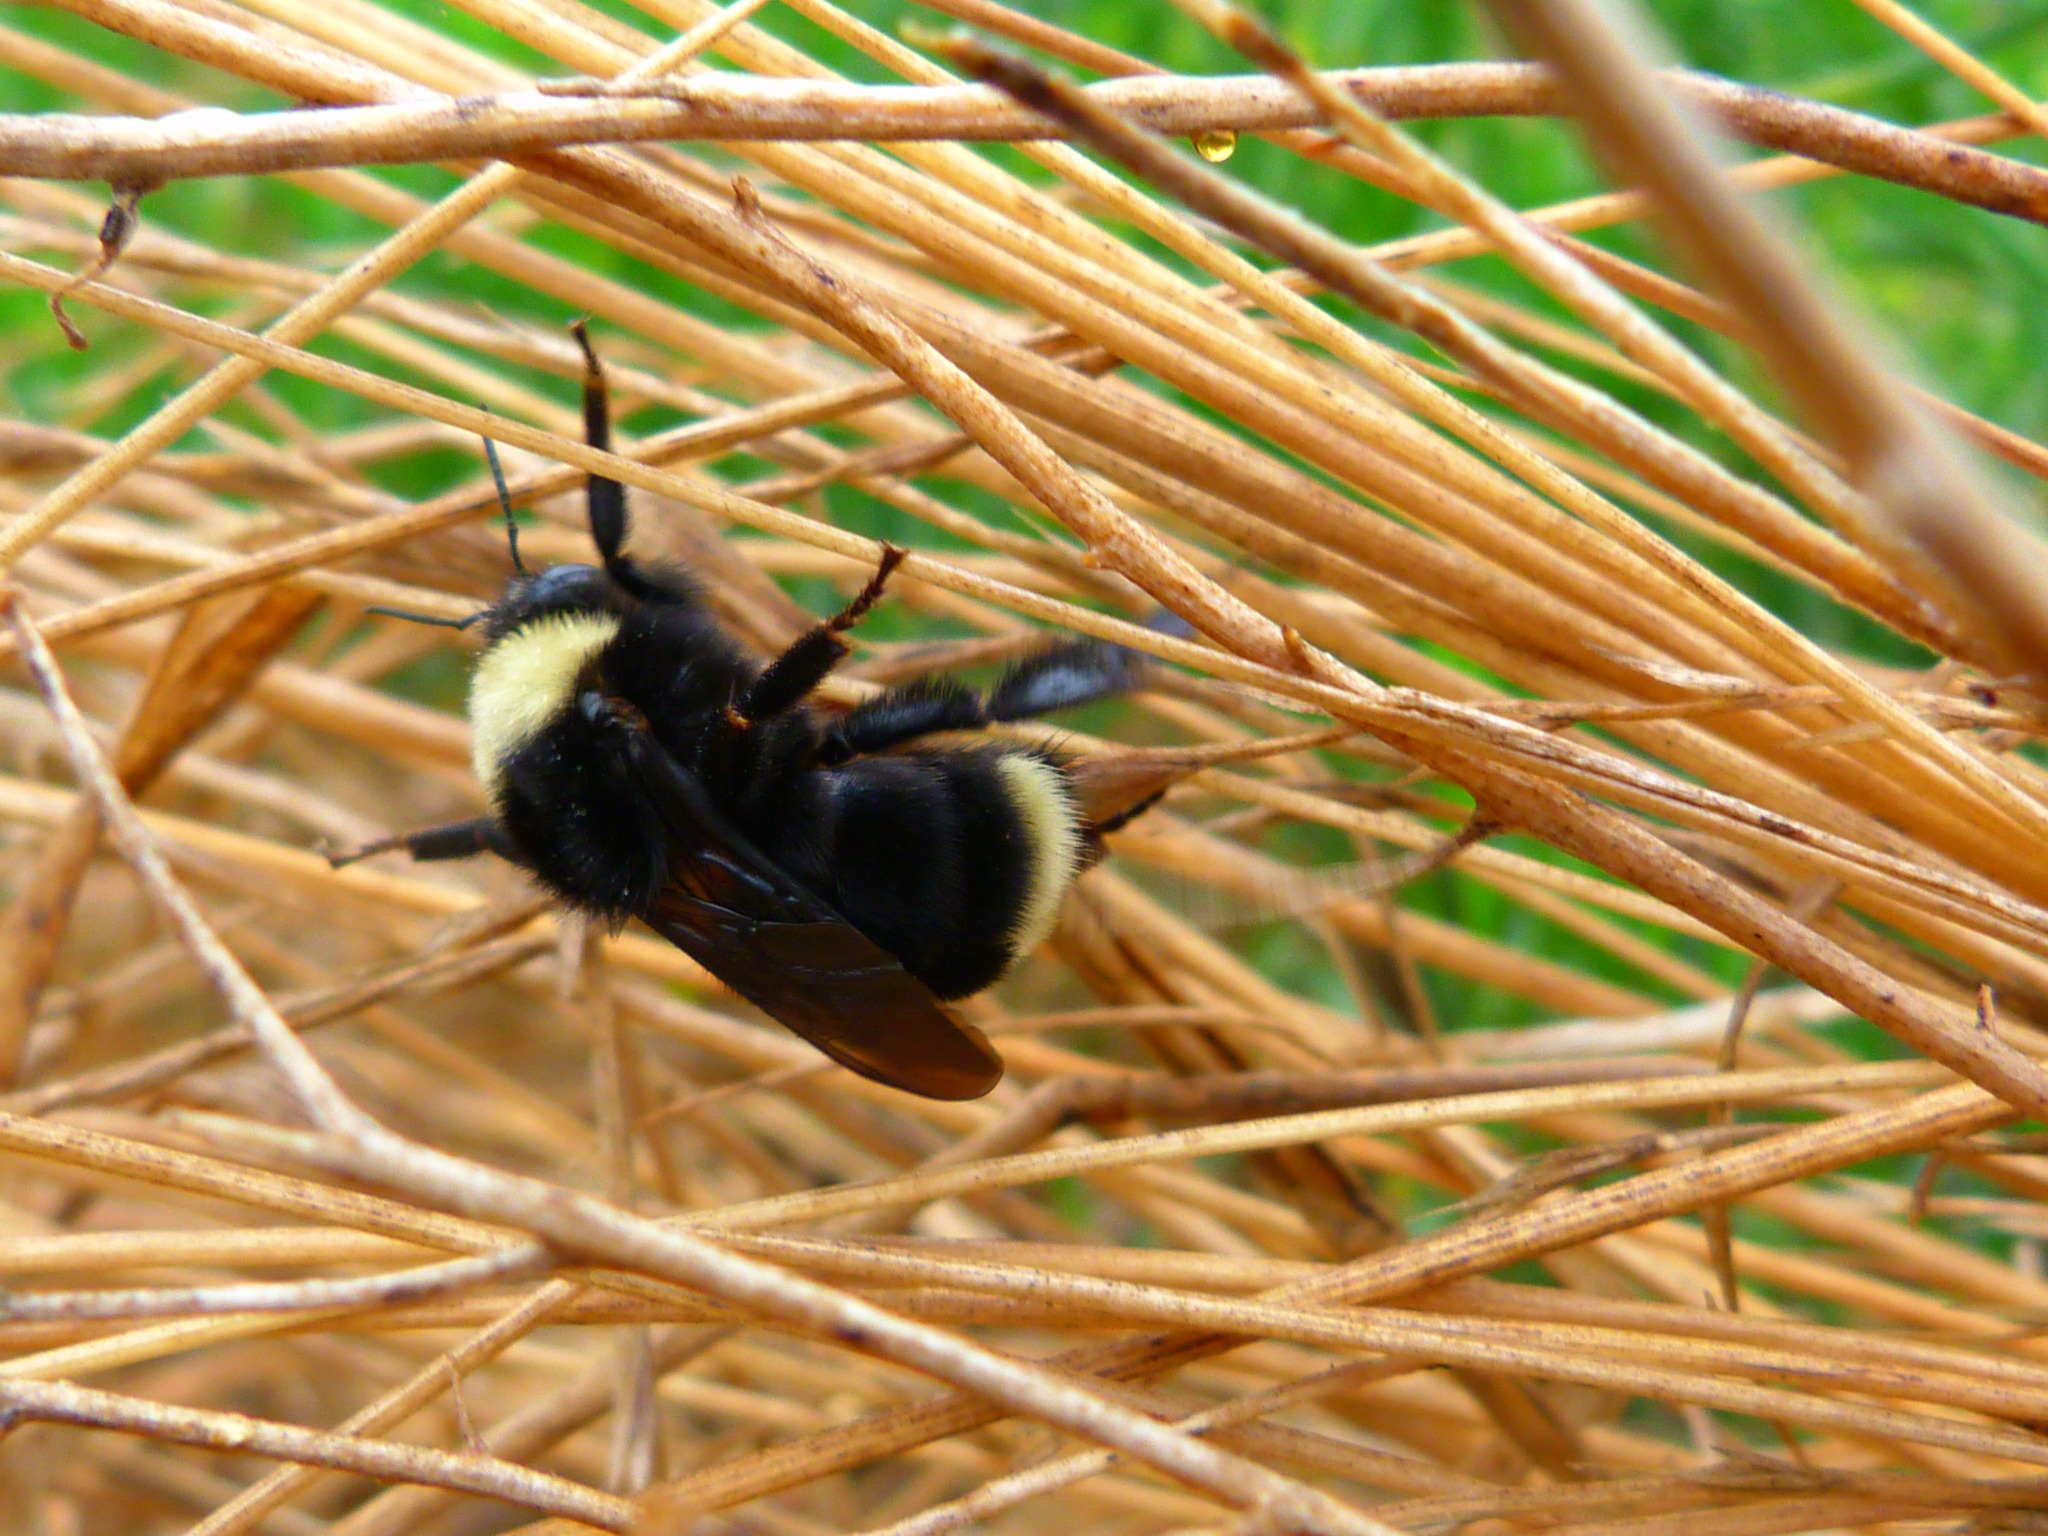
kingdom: Animalia
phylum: Arthropoda
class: Insecta
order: Hymenoptera
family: Apidae
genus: Bombus
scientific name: Bombus californicus
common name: California bumble bee
